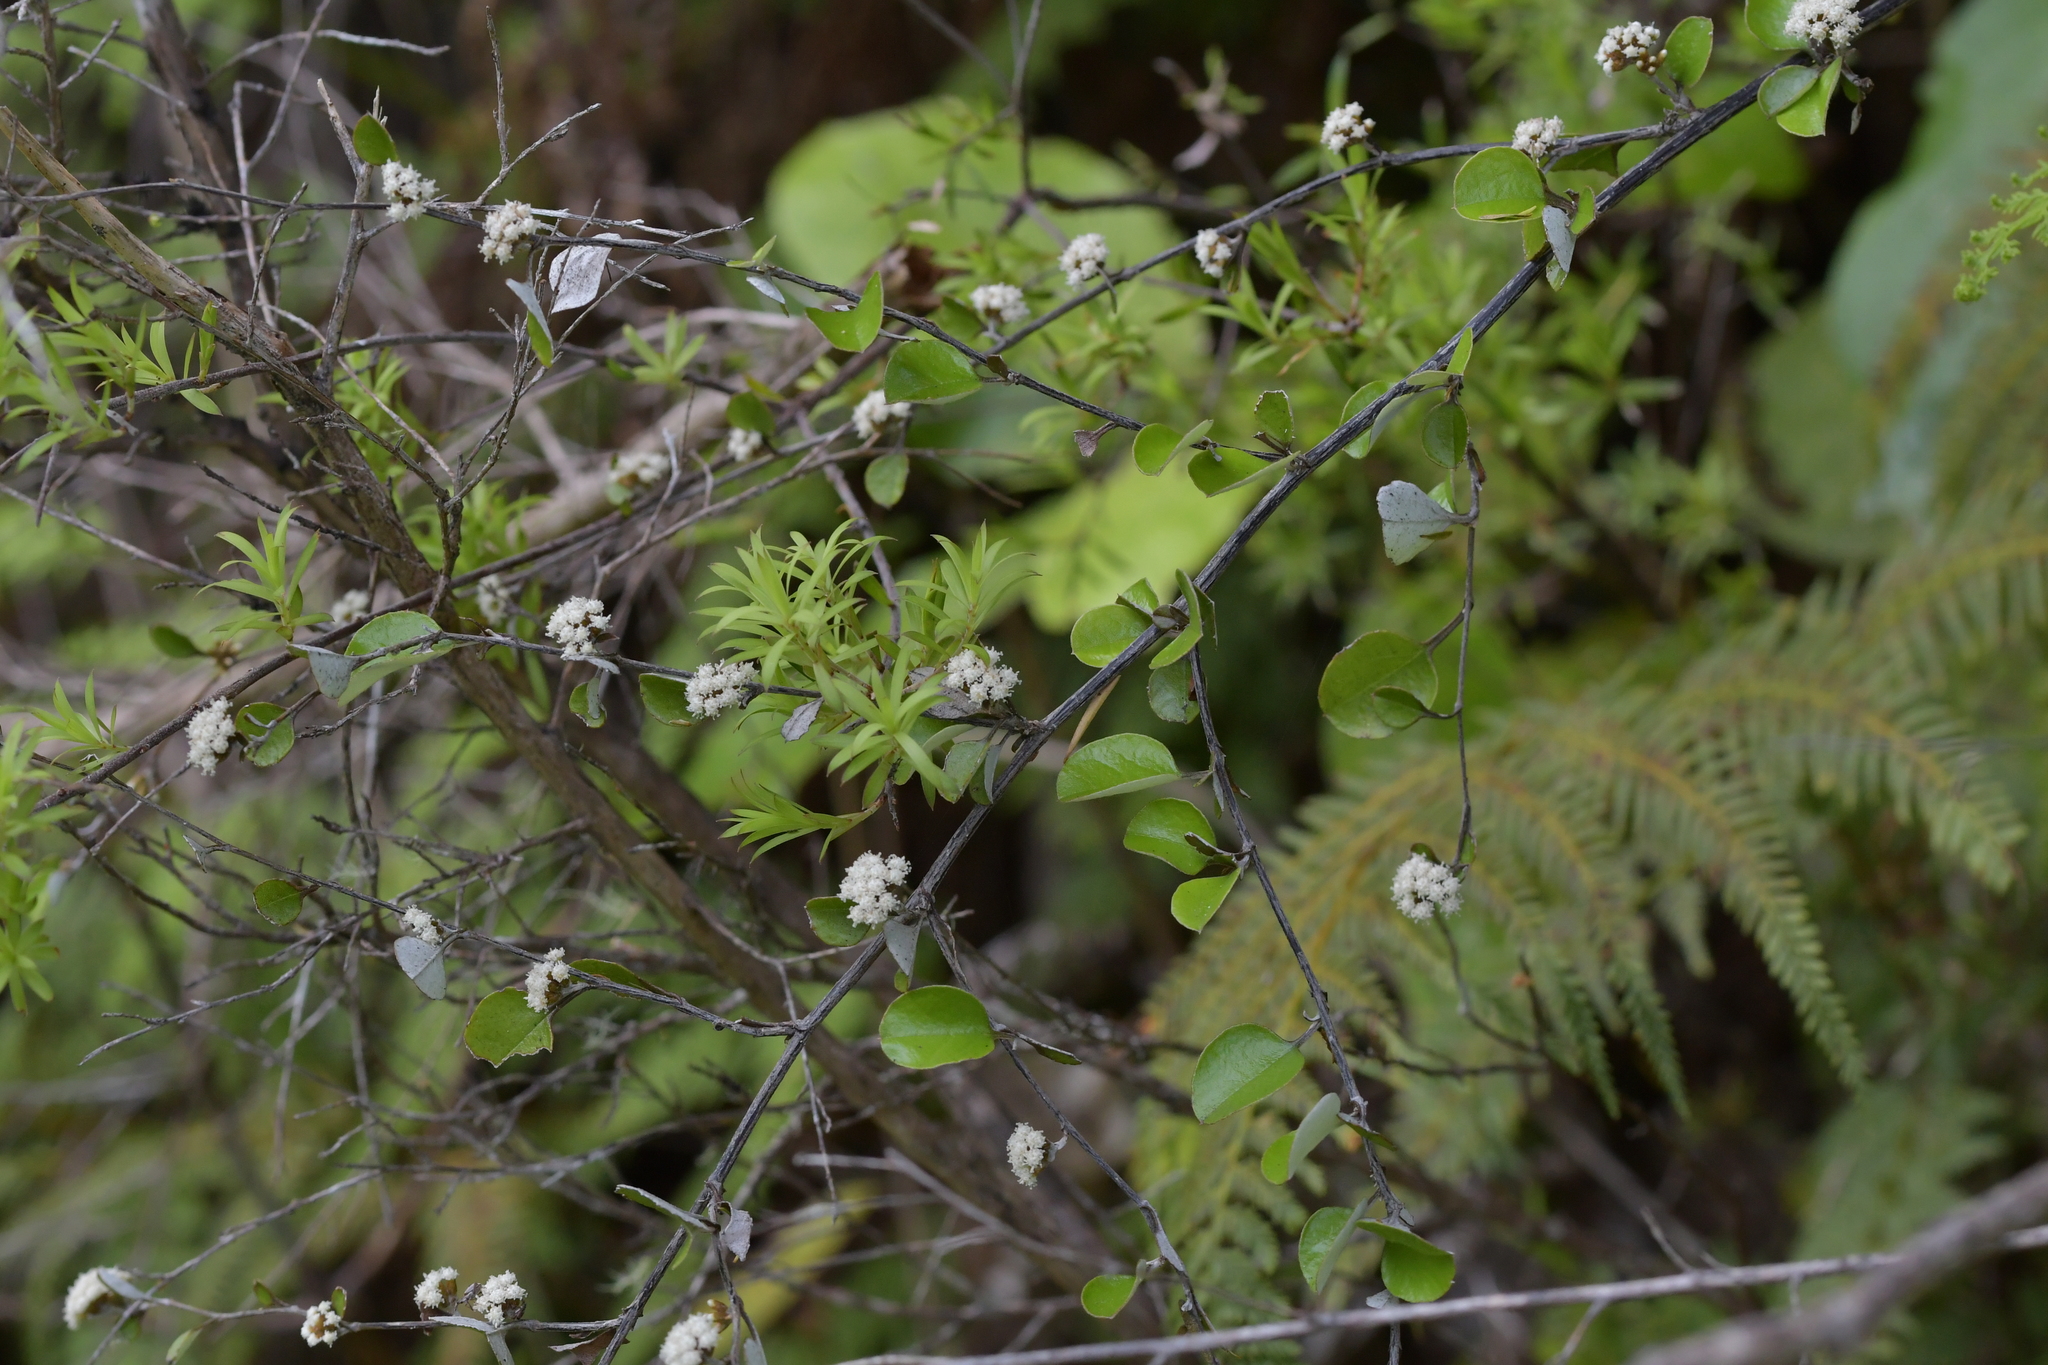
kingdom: Plantae
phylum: Tracheophyta
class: Magnoliopsida
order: Asterales
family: Asteraceae
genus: Ozothamnus
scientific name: Ozothamnus glomeratus
